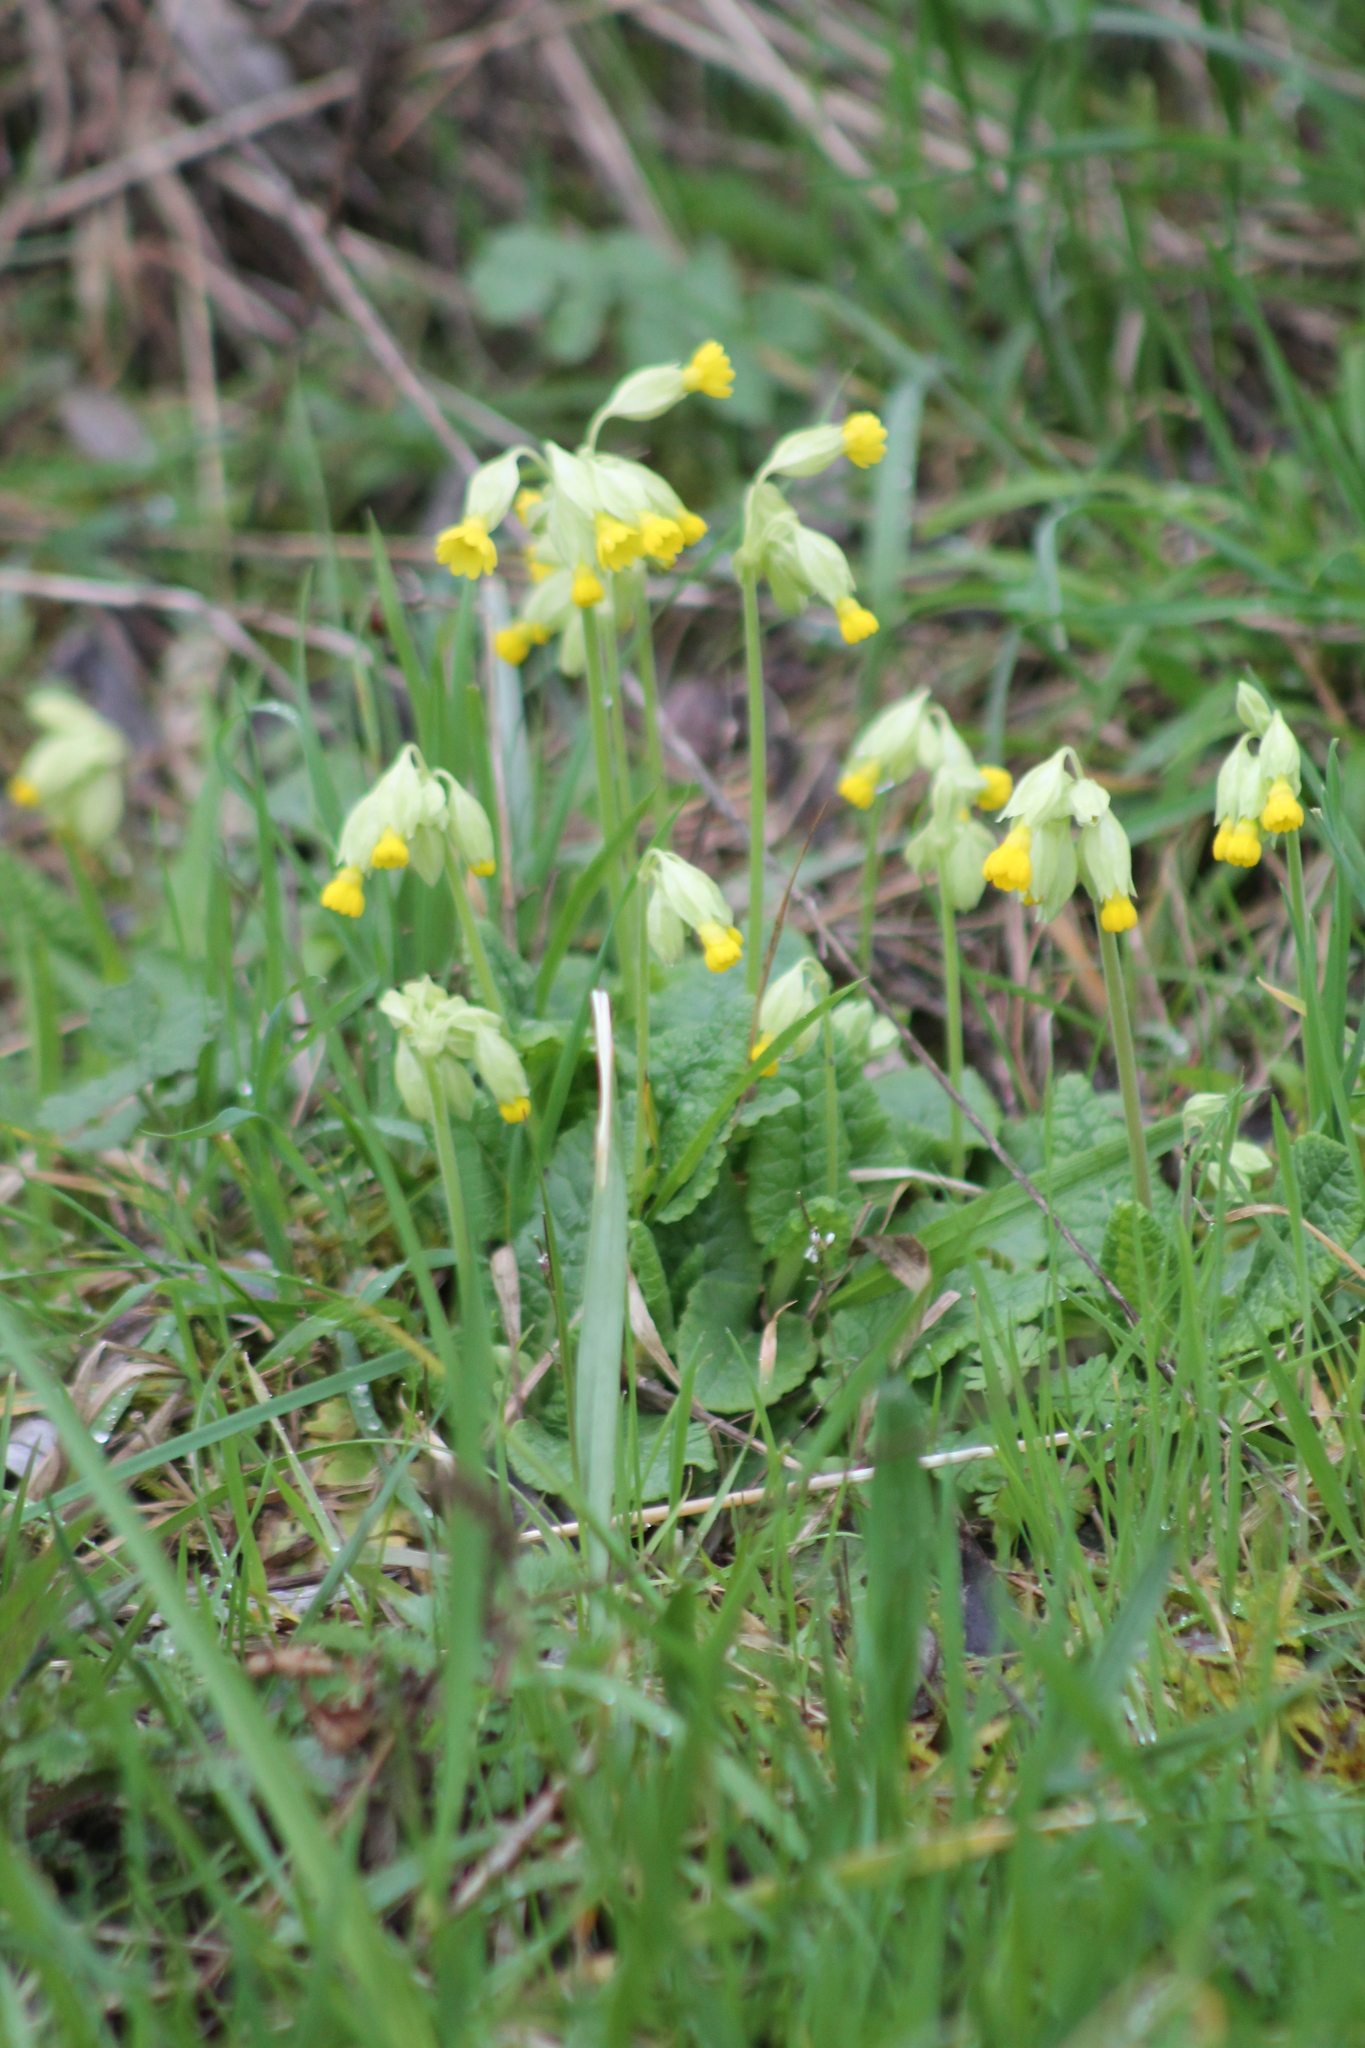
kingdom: Plantae
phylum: Tracheophyta
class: Magnoliopsida
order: Ericales
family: Primulaceae
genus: Primula
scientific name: Primula veris
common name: Cowslip
